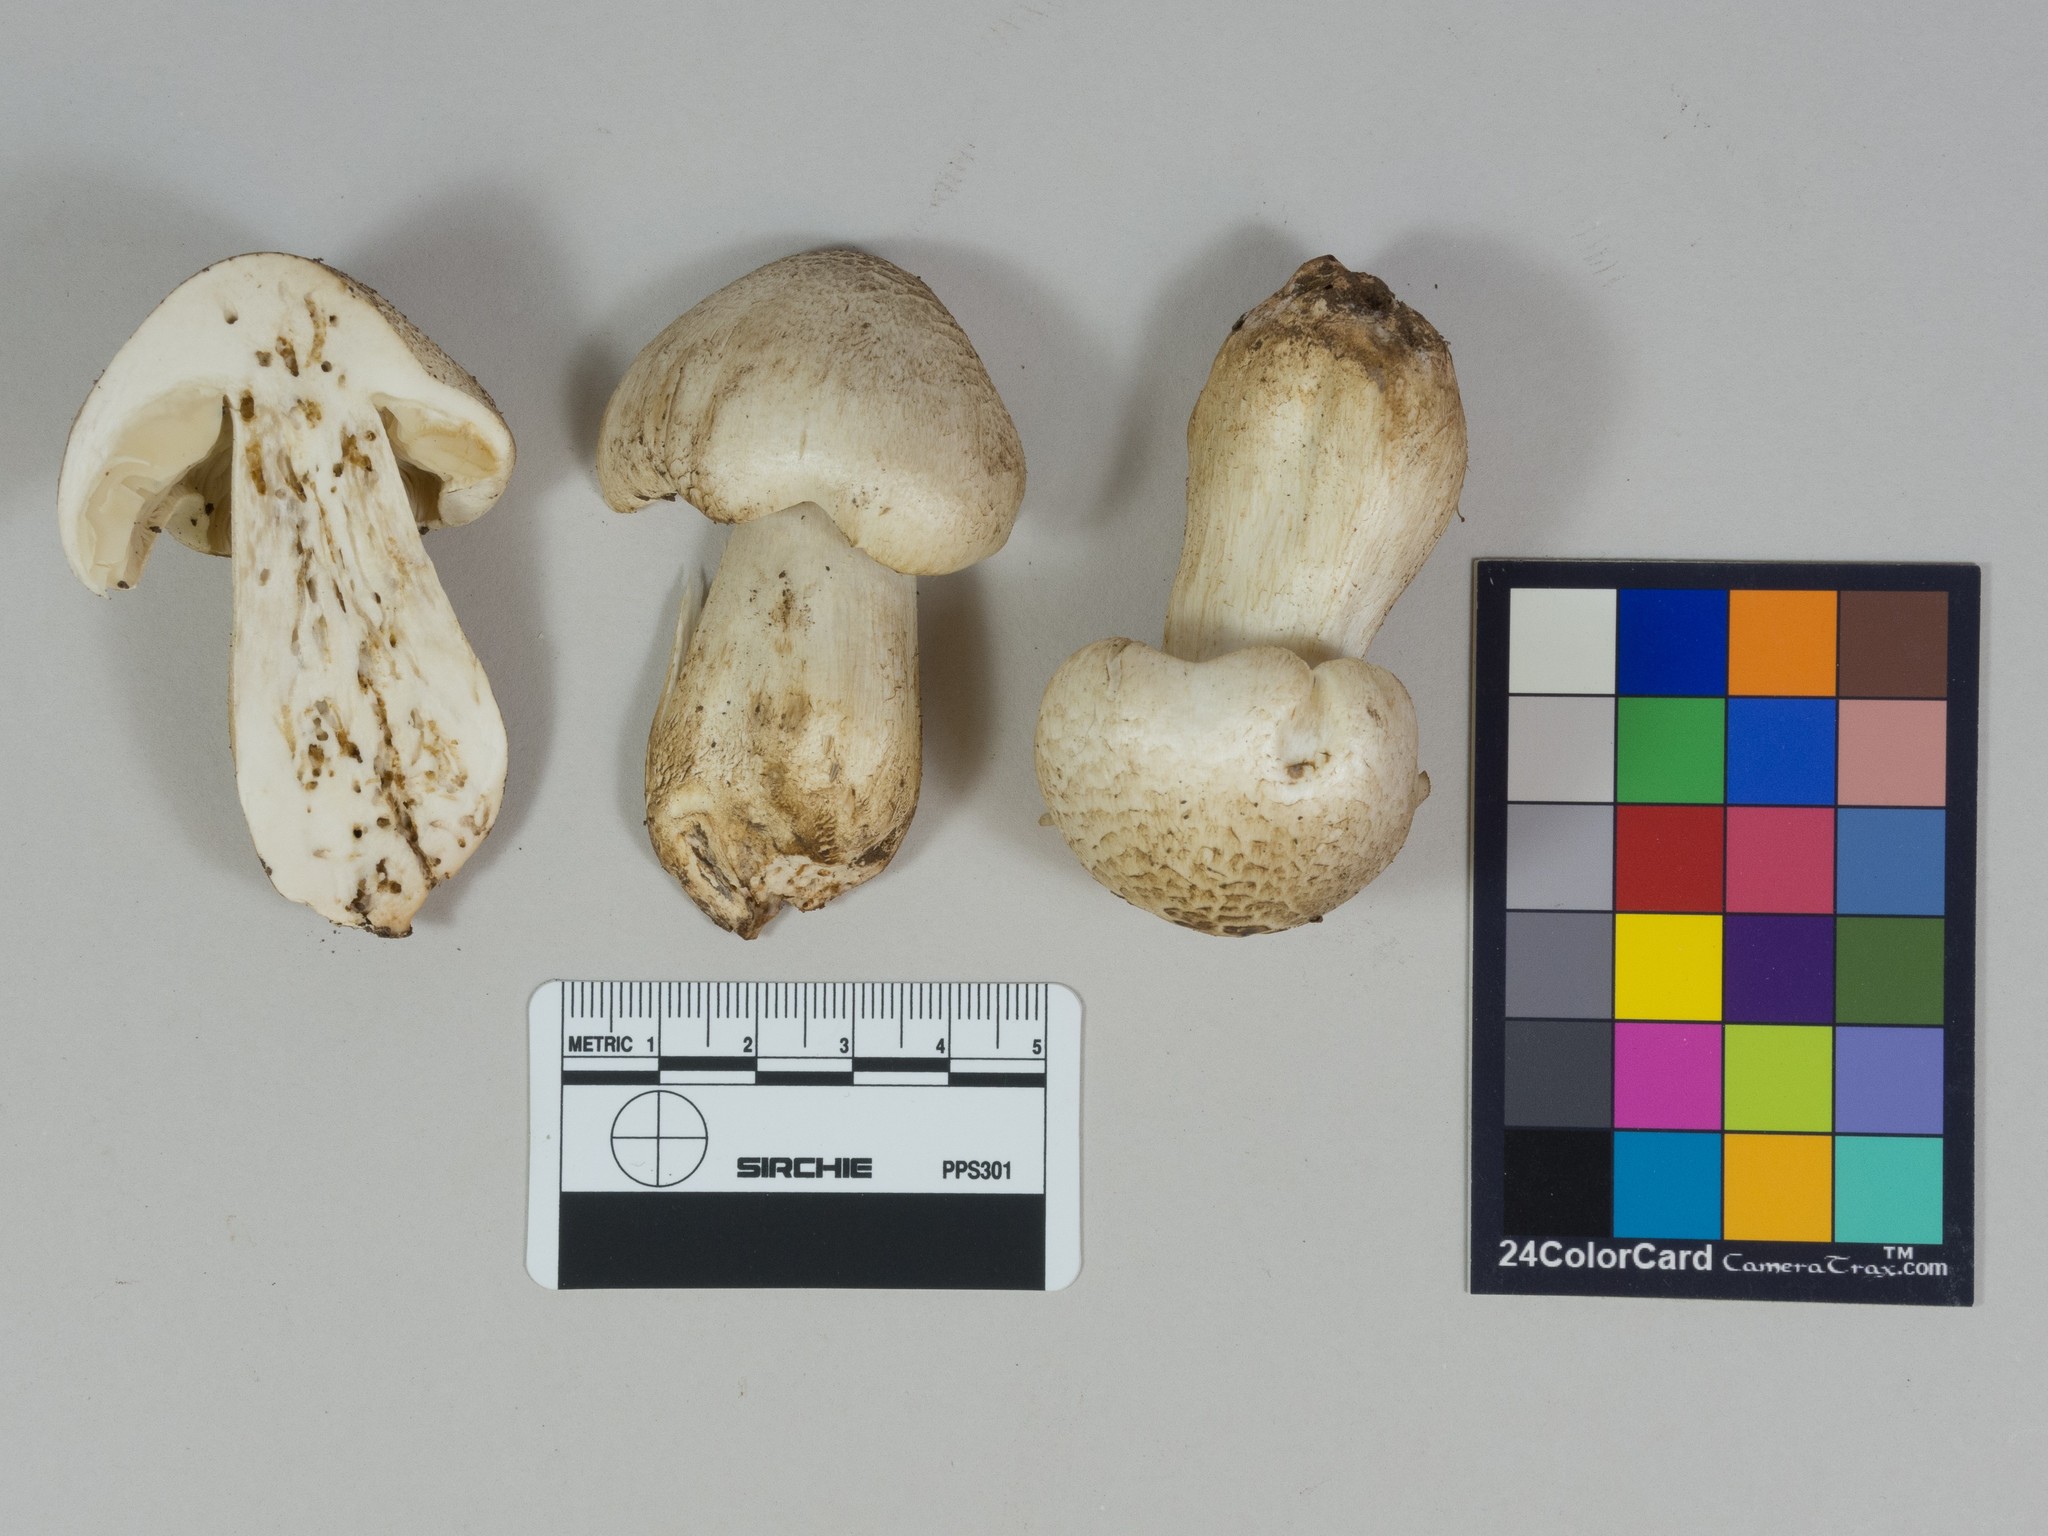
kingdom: Fungi
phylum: Basidiomycota
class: Agaricomycetes
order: Agaricales
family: Tricholomataceae
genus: Tricholoma
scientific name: Tricholoma smithii
